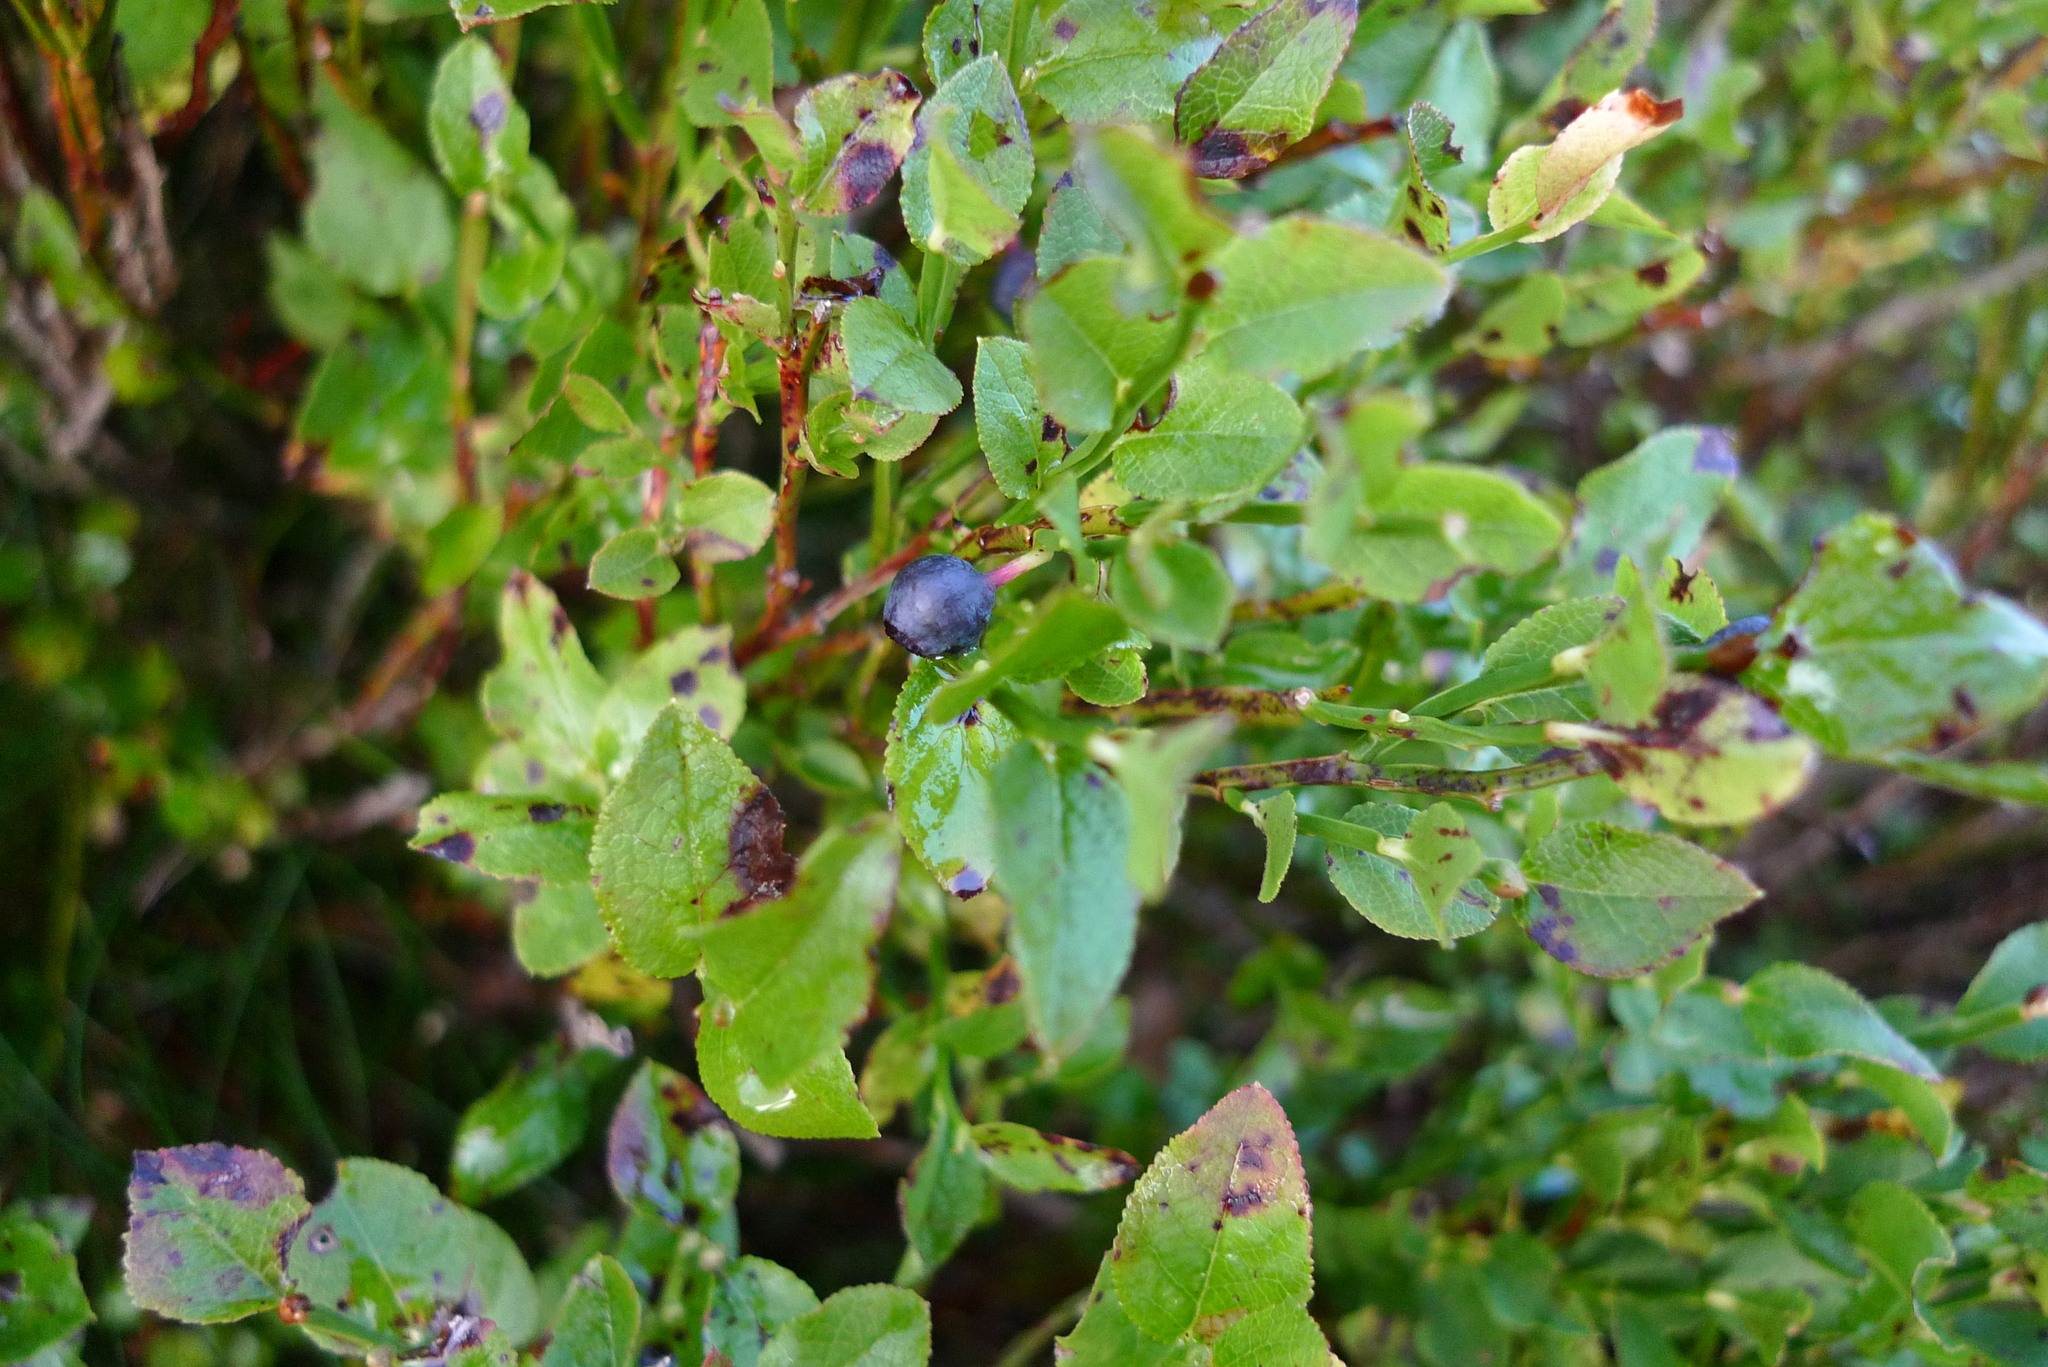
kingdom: Plantae
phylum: Tracheophyta
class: Magnoliopsida
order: Ericales
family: Ericaceae
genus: Vaccinium
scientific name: Vaccinium myrtillus
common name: Bilberry
